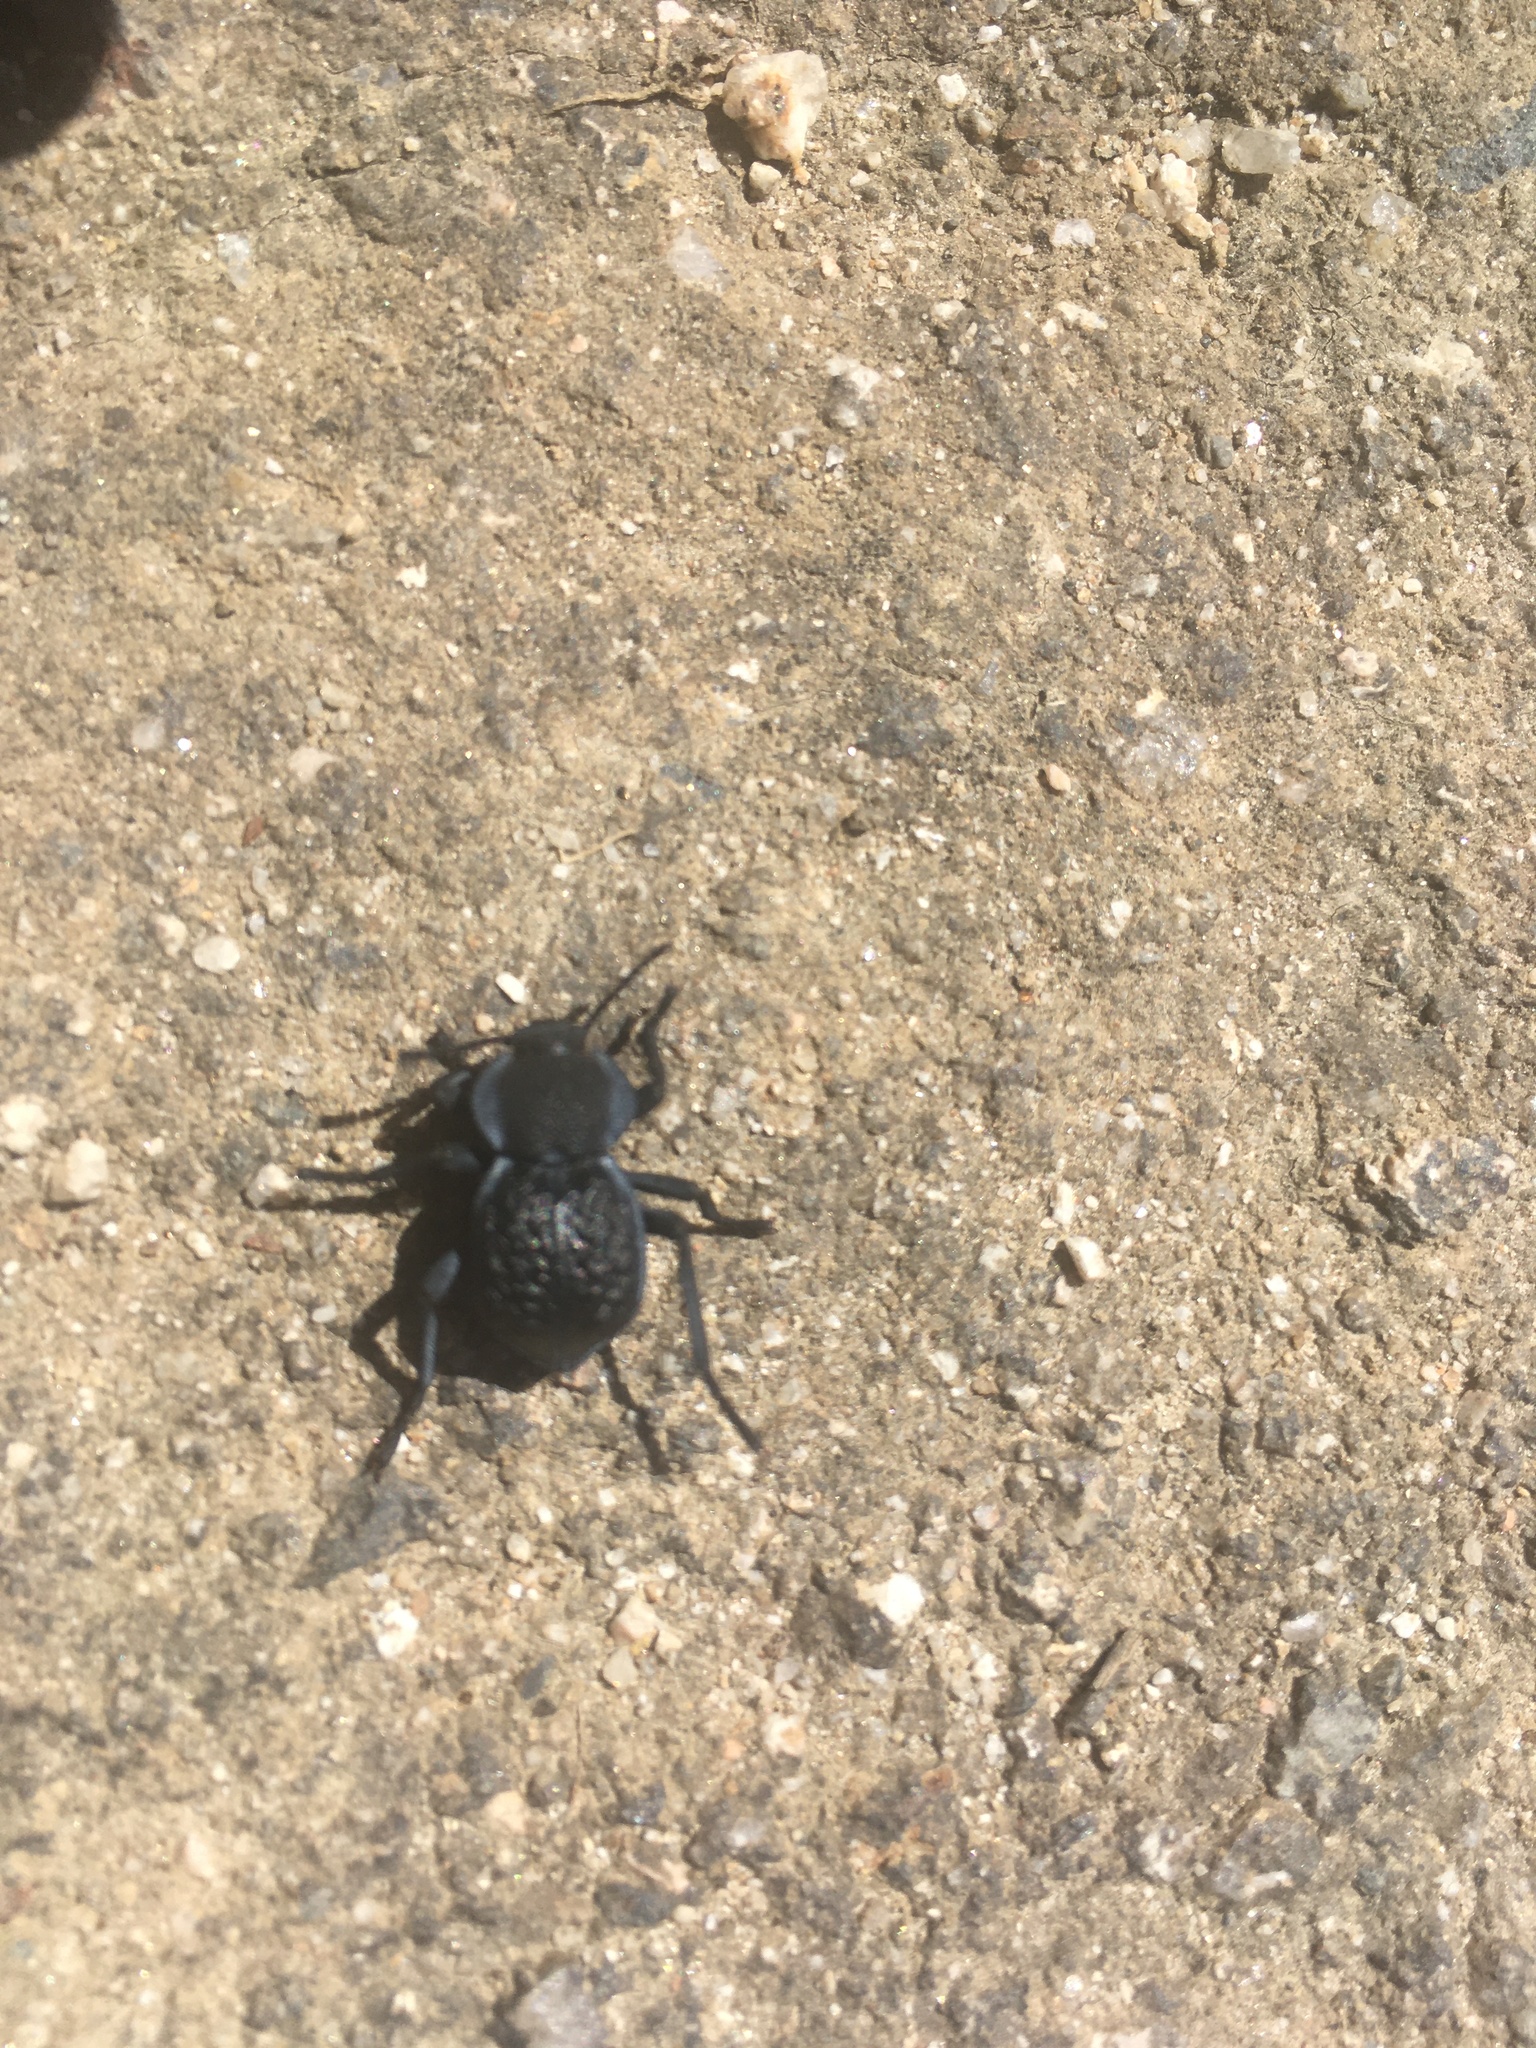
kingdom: Animalia
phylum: Arthropoda
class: Insecta
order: Coleoptera
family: Tenebrionidae
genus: Microschatia
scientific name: Microschatia inaequalis
